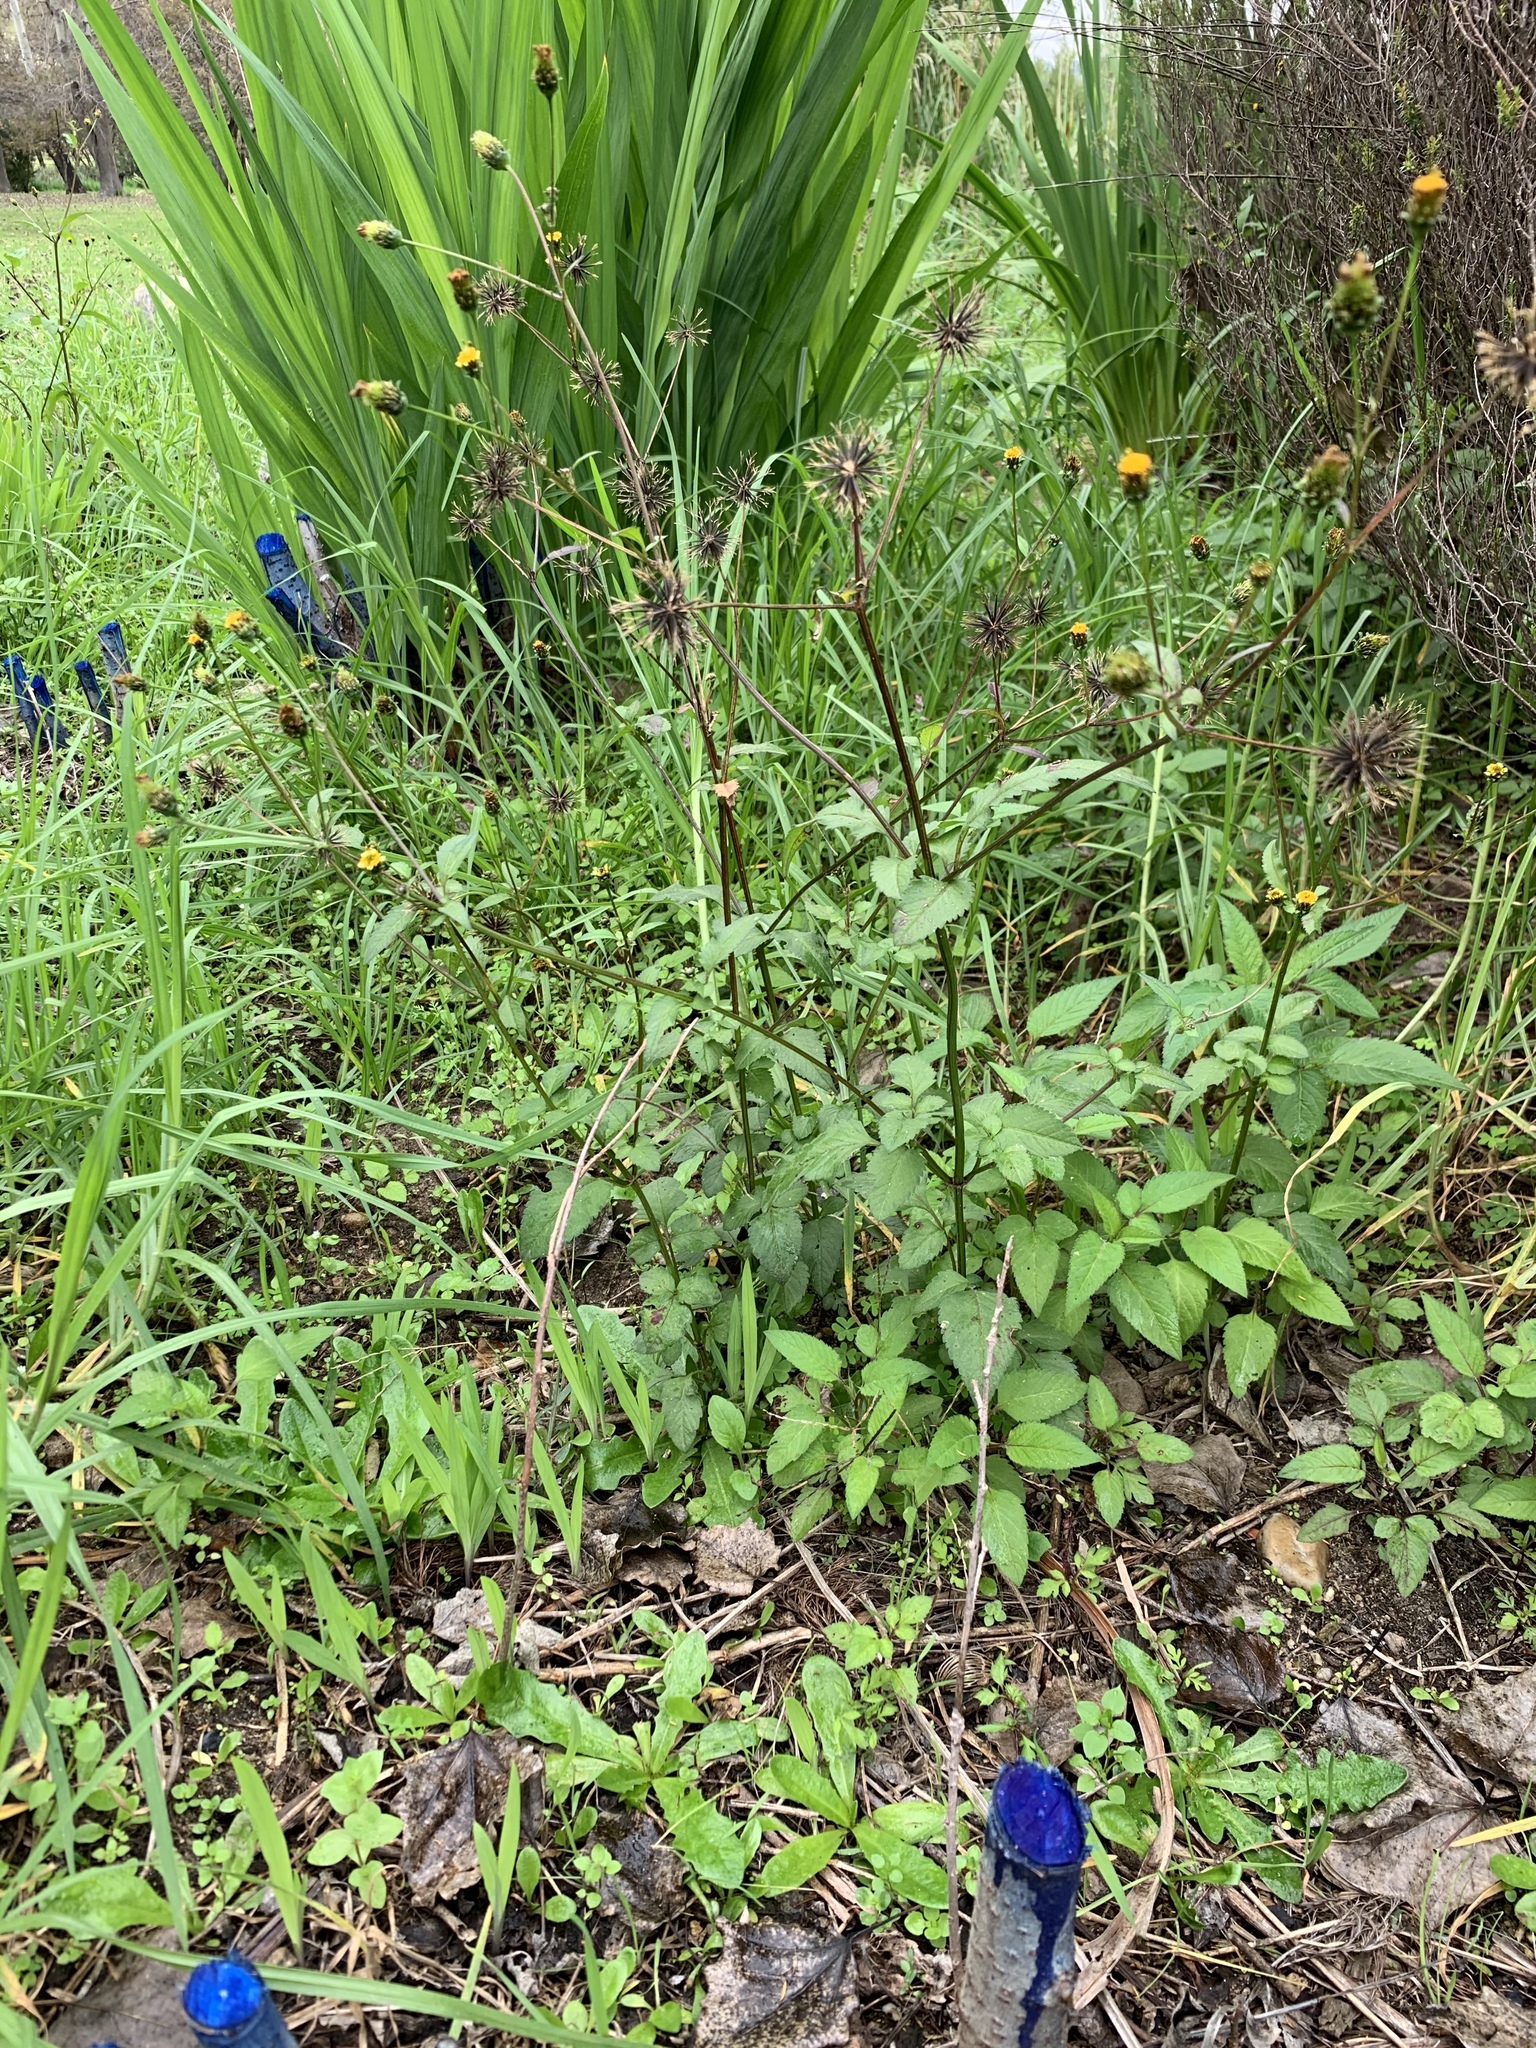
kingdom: Plantae
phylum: Tracheophyta
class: Magnoliopsida
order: Asterales
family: Asteraceae
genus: Bidens
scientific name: Bidens pilosa
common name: Black-jack
